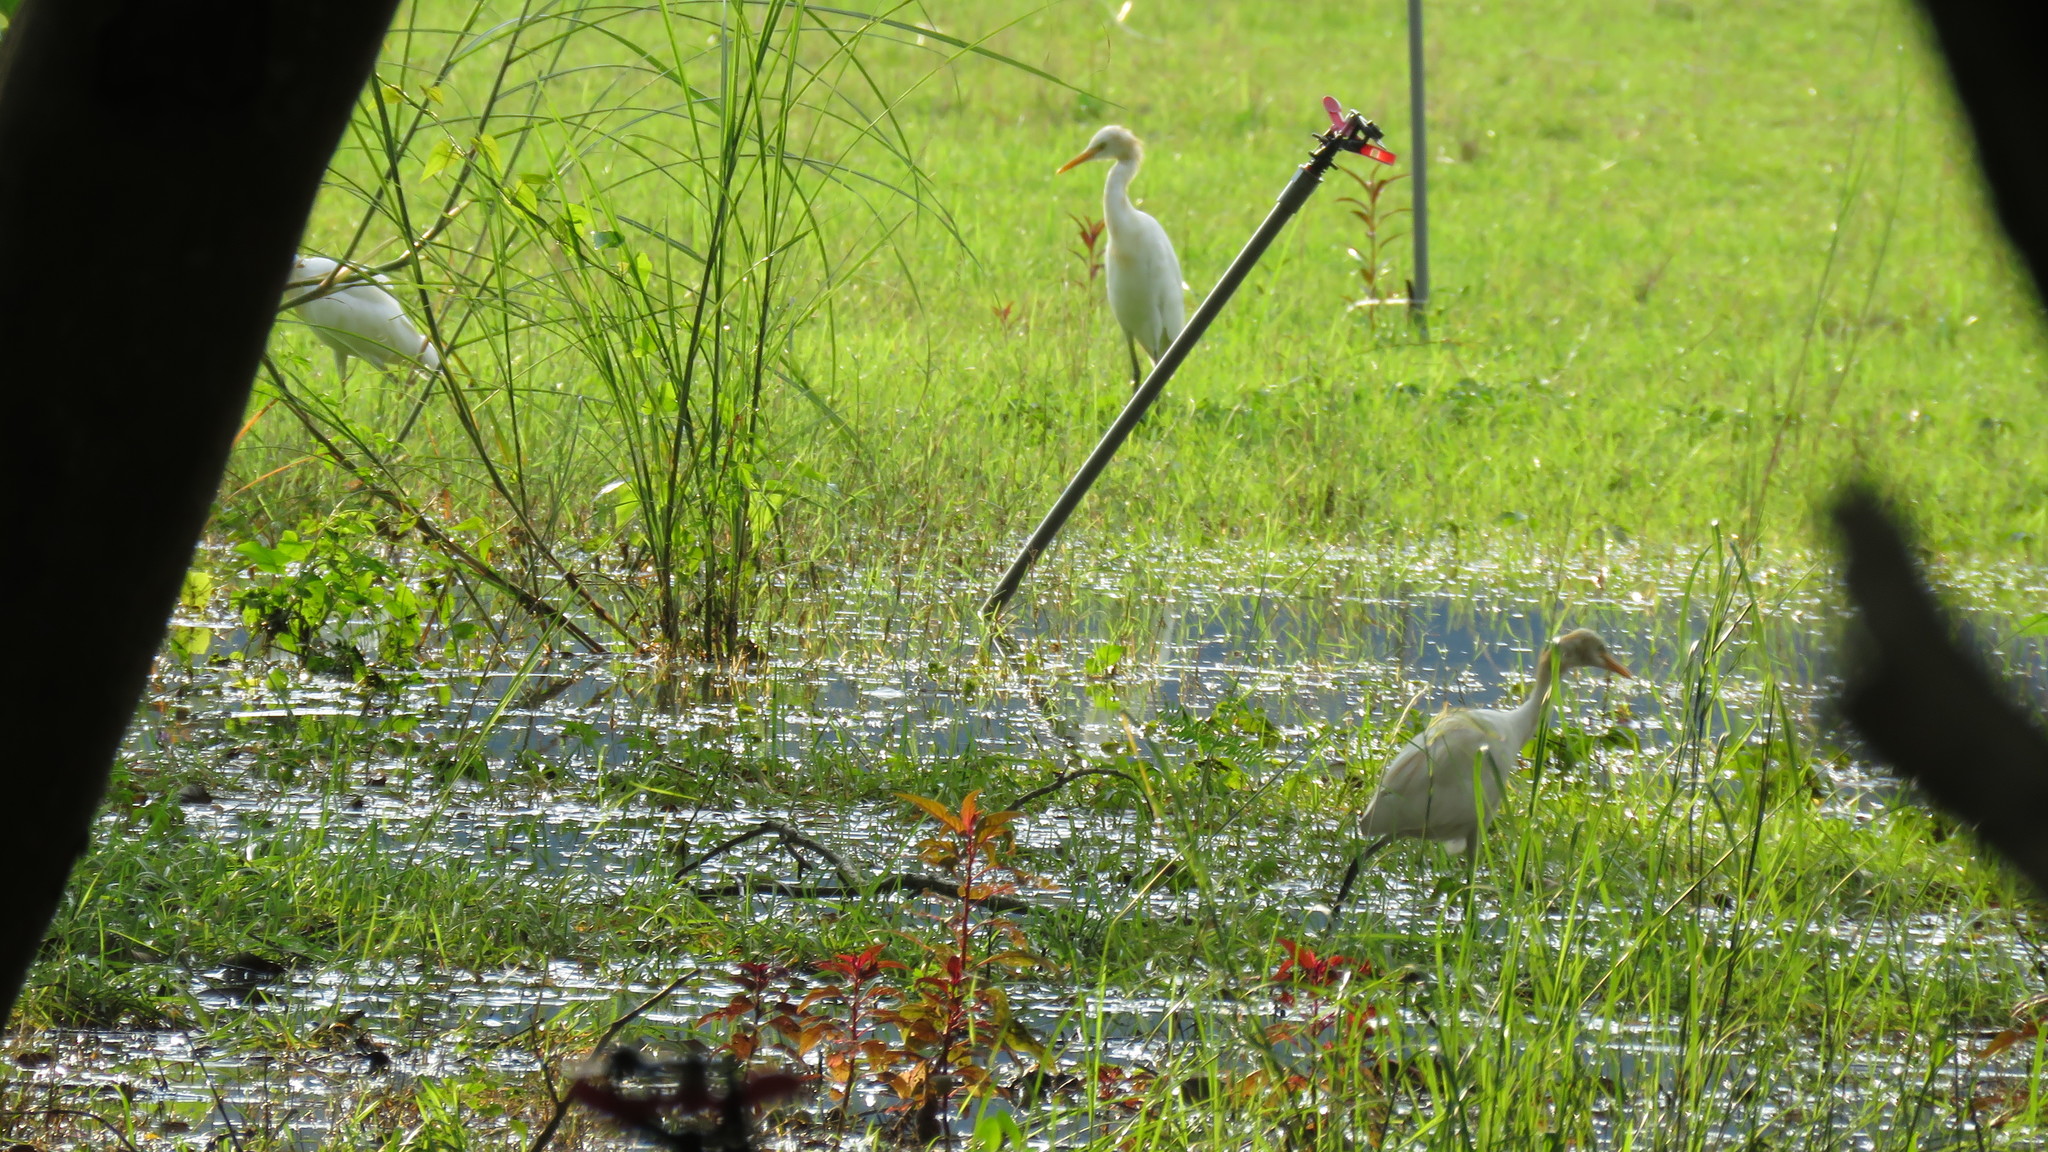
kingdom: Animalia
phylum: Chordata
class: Aves
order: Pelecaniformes
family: Ardeidae
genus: Bubulcus
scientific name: Bubulcus coromandus
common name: Eastern cattle egret
